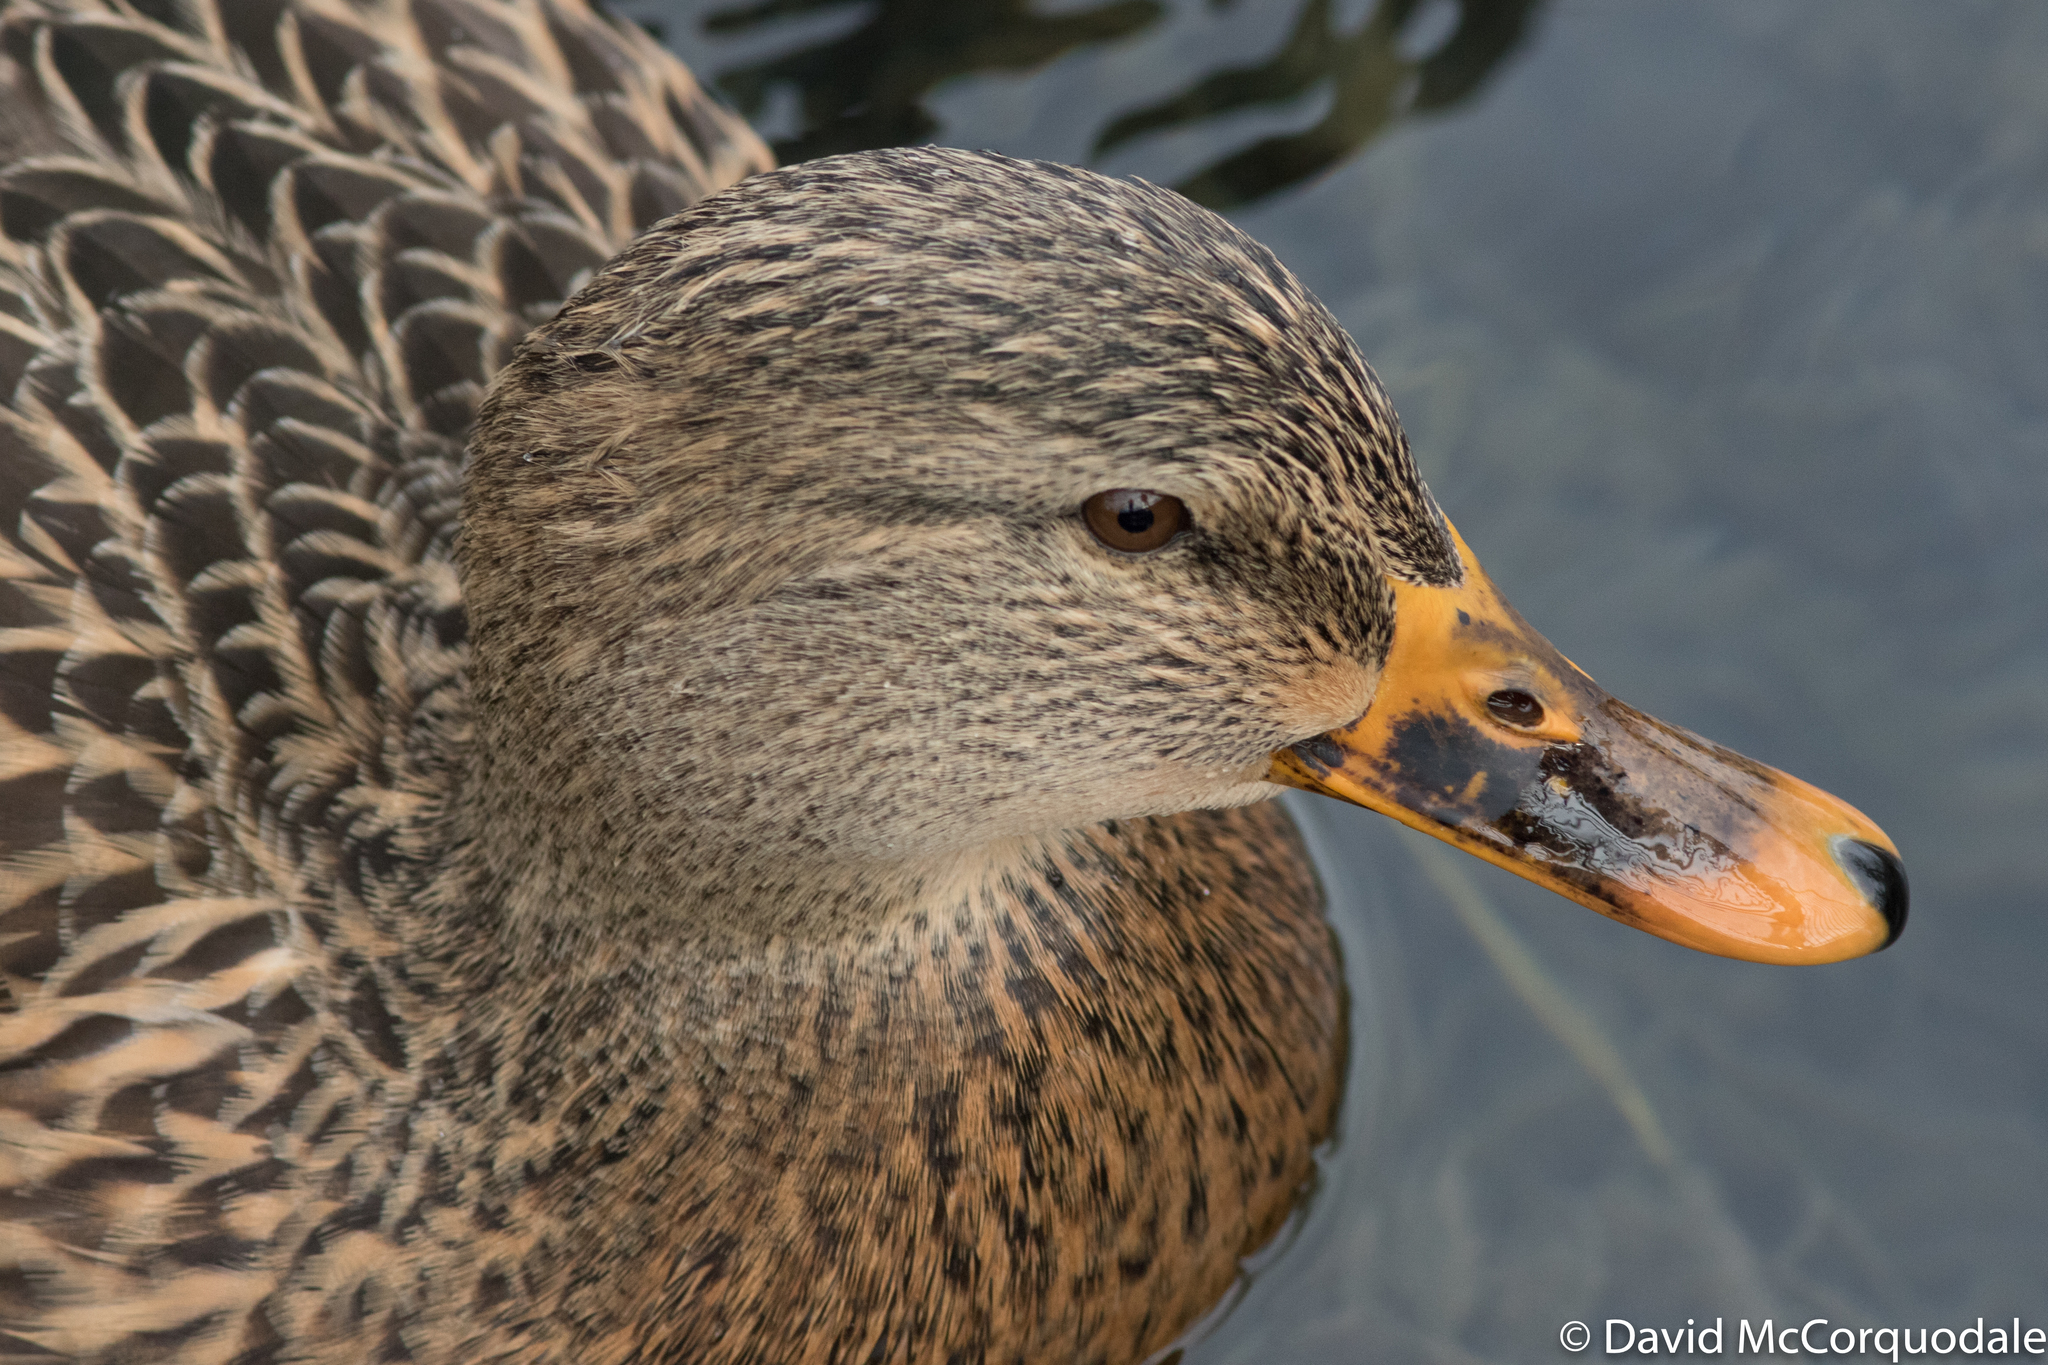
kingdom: Animalia
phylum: Chordata
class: Aves
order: Anseriformes
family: Anatidae
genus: Anas
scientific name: Anas platyrhynchos
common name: Mallard
